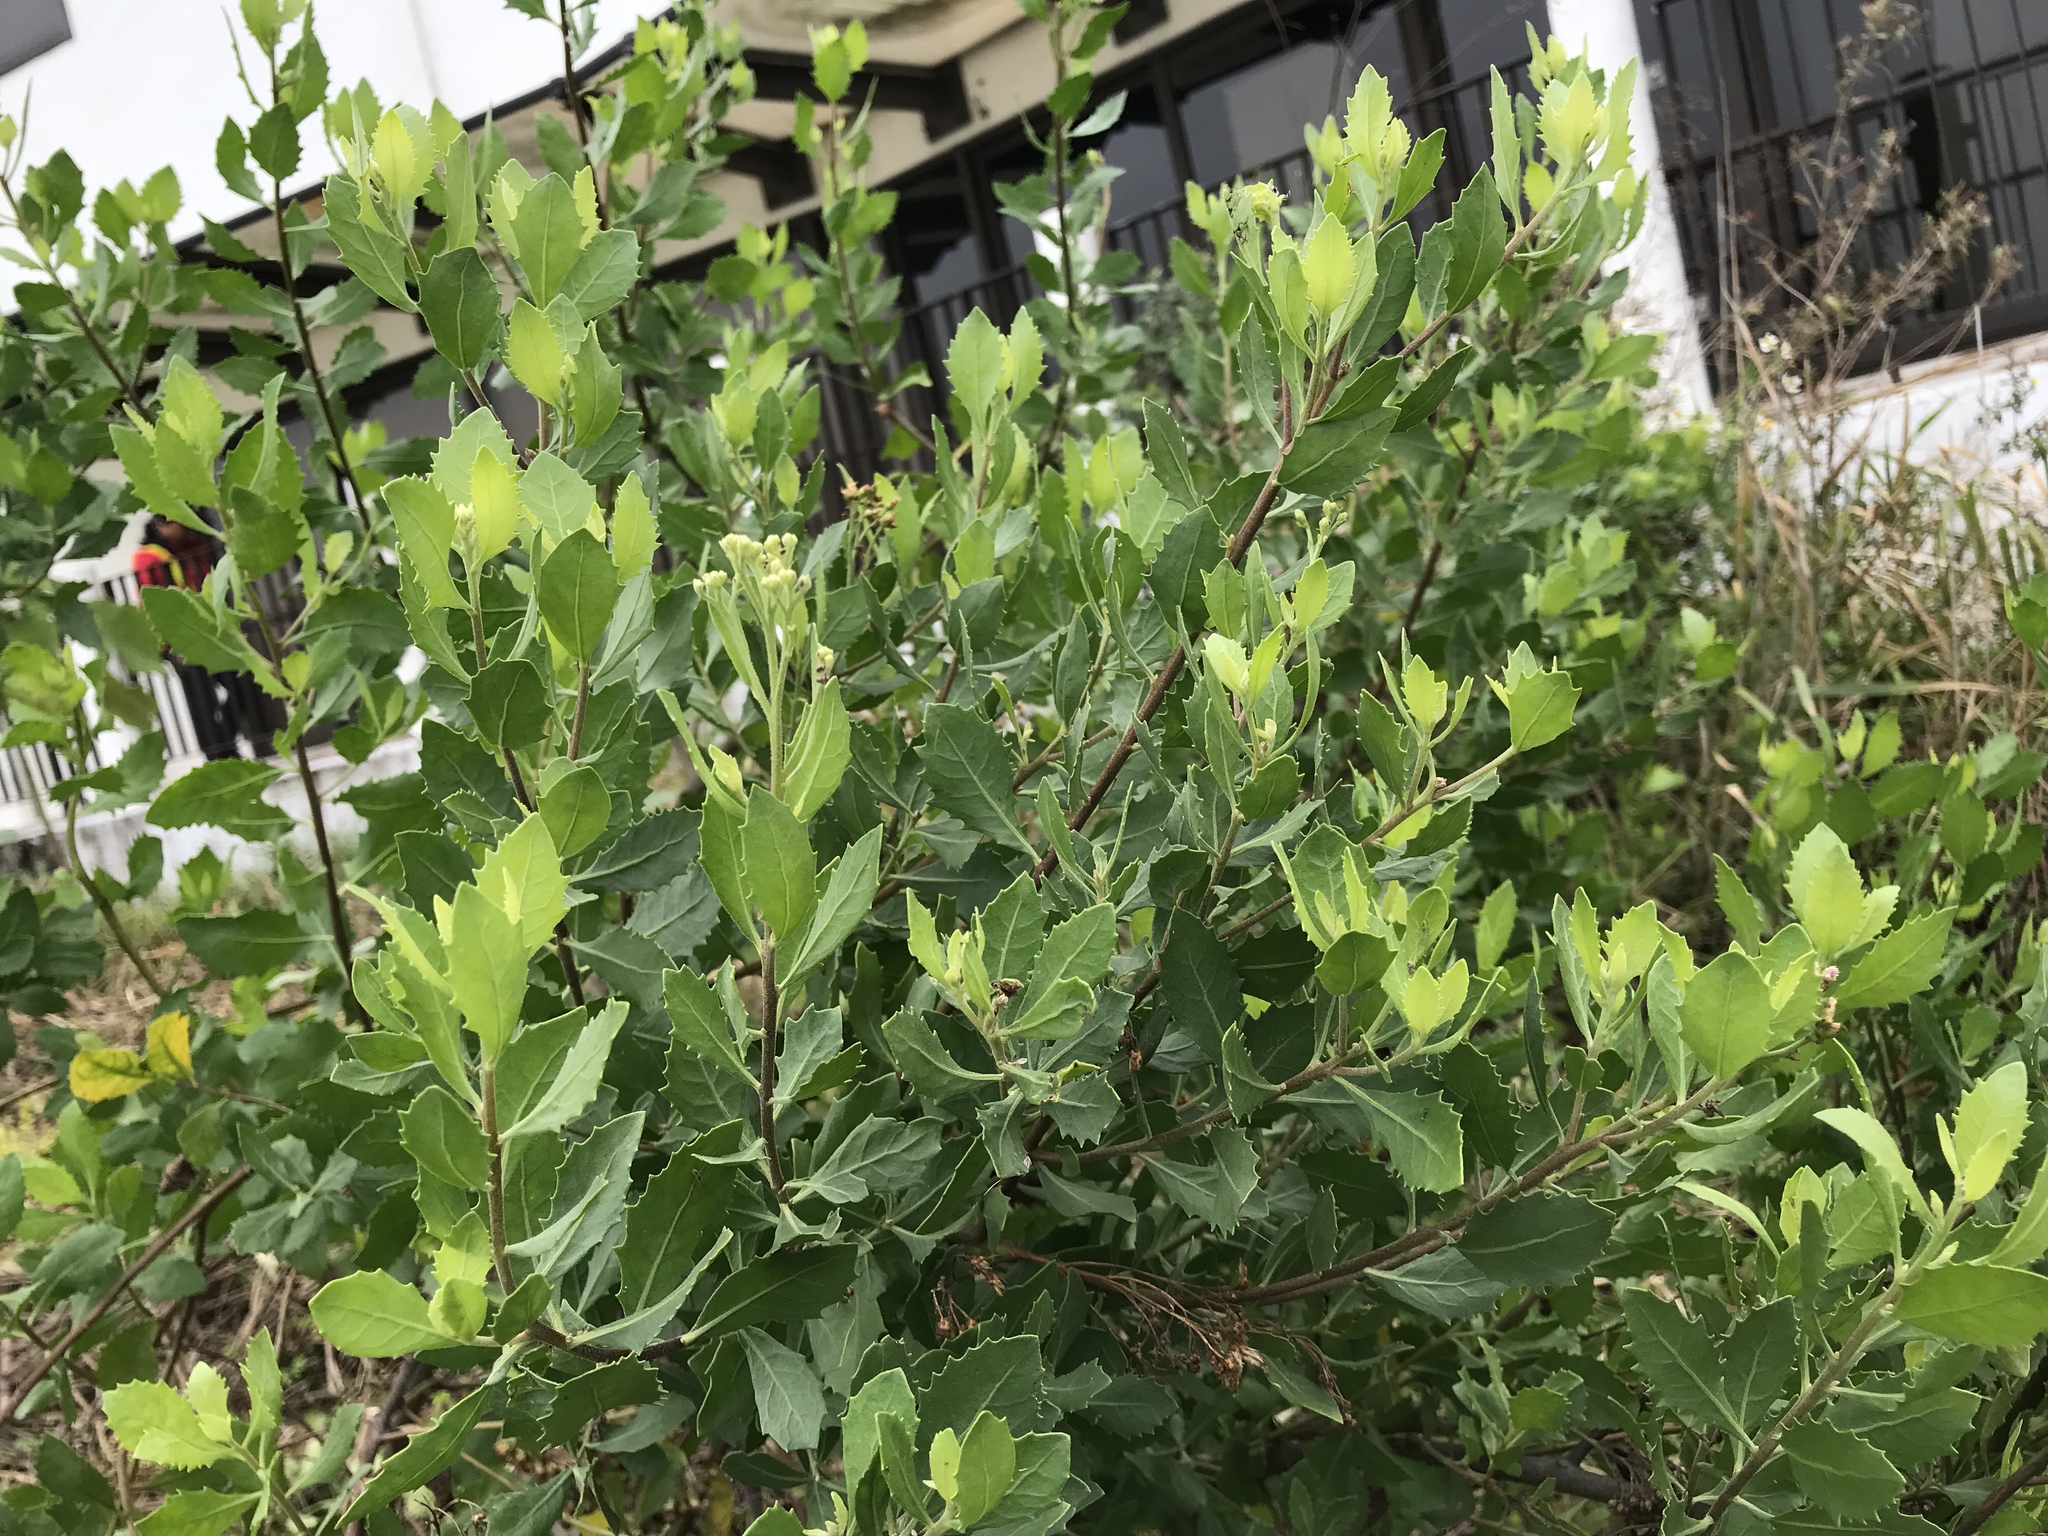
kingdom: Plantae
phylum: Tracheophyta
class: Magnoliopsida
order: Asterales
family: Asteraceae
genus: Pluchea
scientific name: Pluchea indica
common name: Indian fleabane
